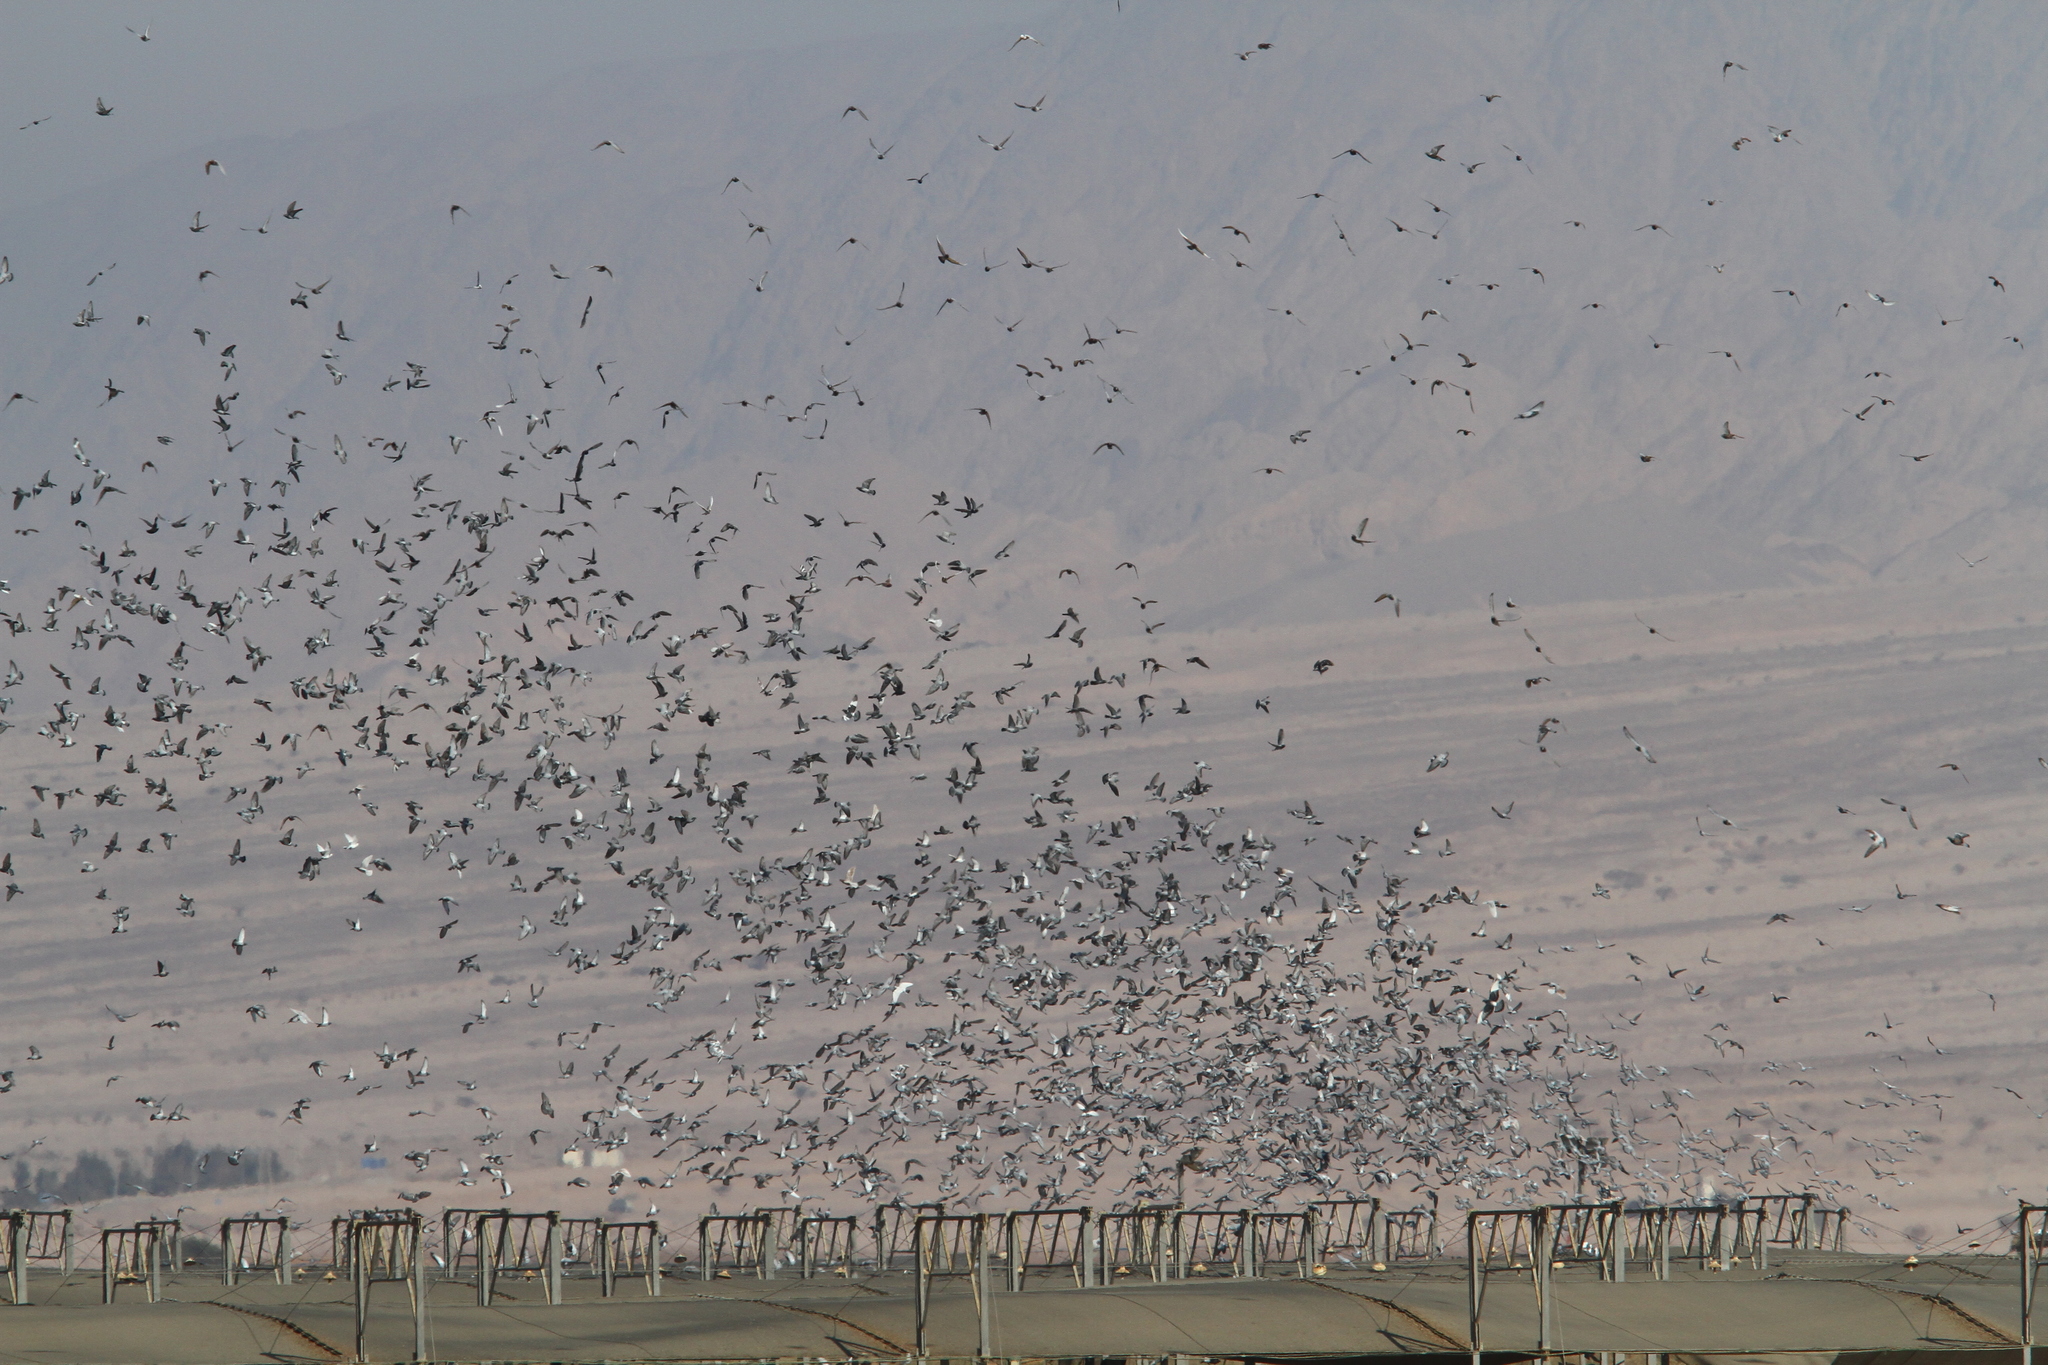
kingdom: Animalia
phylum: Chordata
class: Aves
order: Columbiformes
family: Columbidae
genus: Columba
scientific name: Columba livia
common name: Rock pigeon
